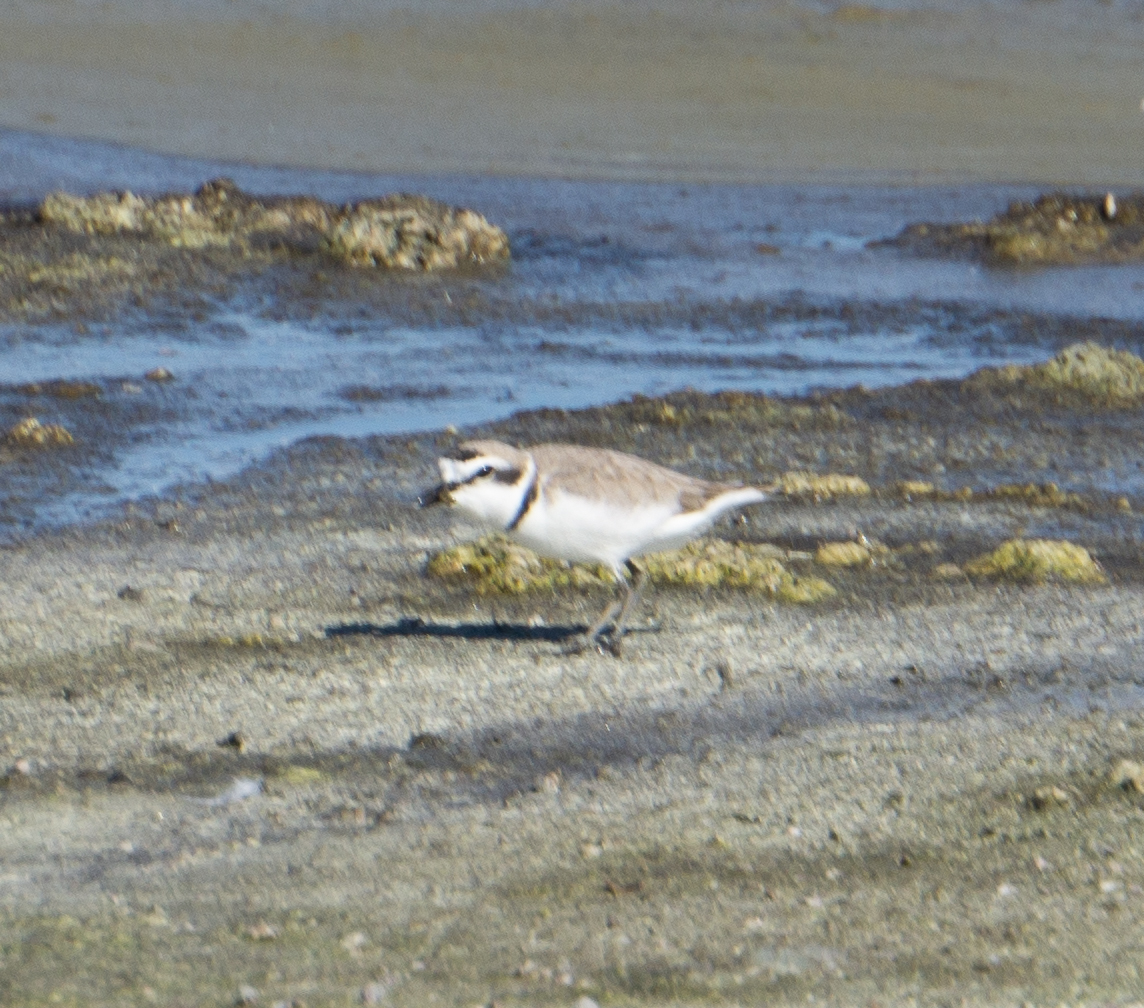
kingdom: Animalia
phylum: Chordata
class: Aves
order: Charadriiformes
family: Charadriidae
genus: Anarhynchus
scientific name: Anarhynchus
